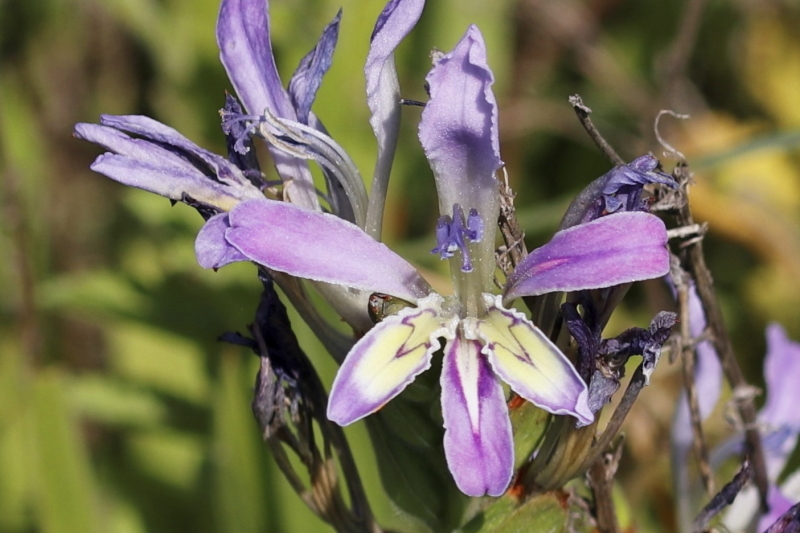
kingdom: Plantae
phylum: Tracheophyta
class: Liliopsida
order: Asparagales
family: Iridaceae
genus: Babiana
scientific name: Babiana ambigua
